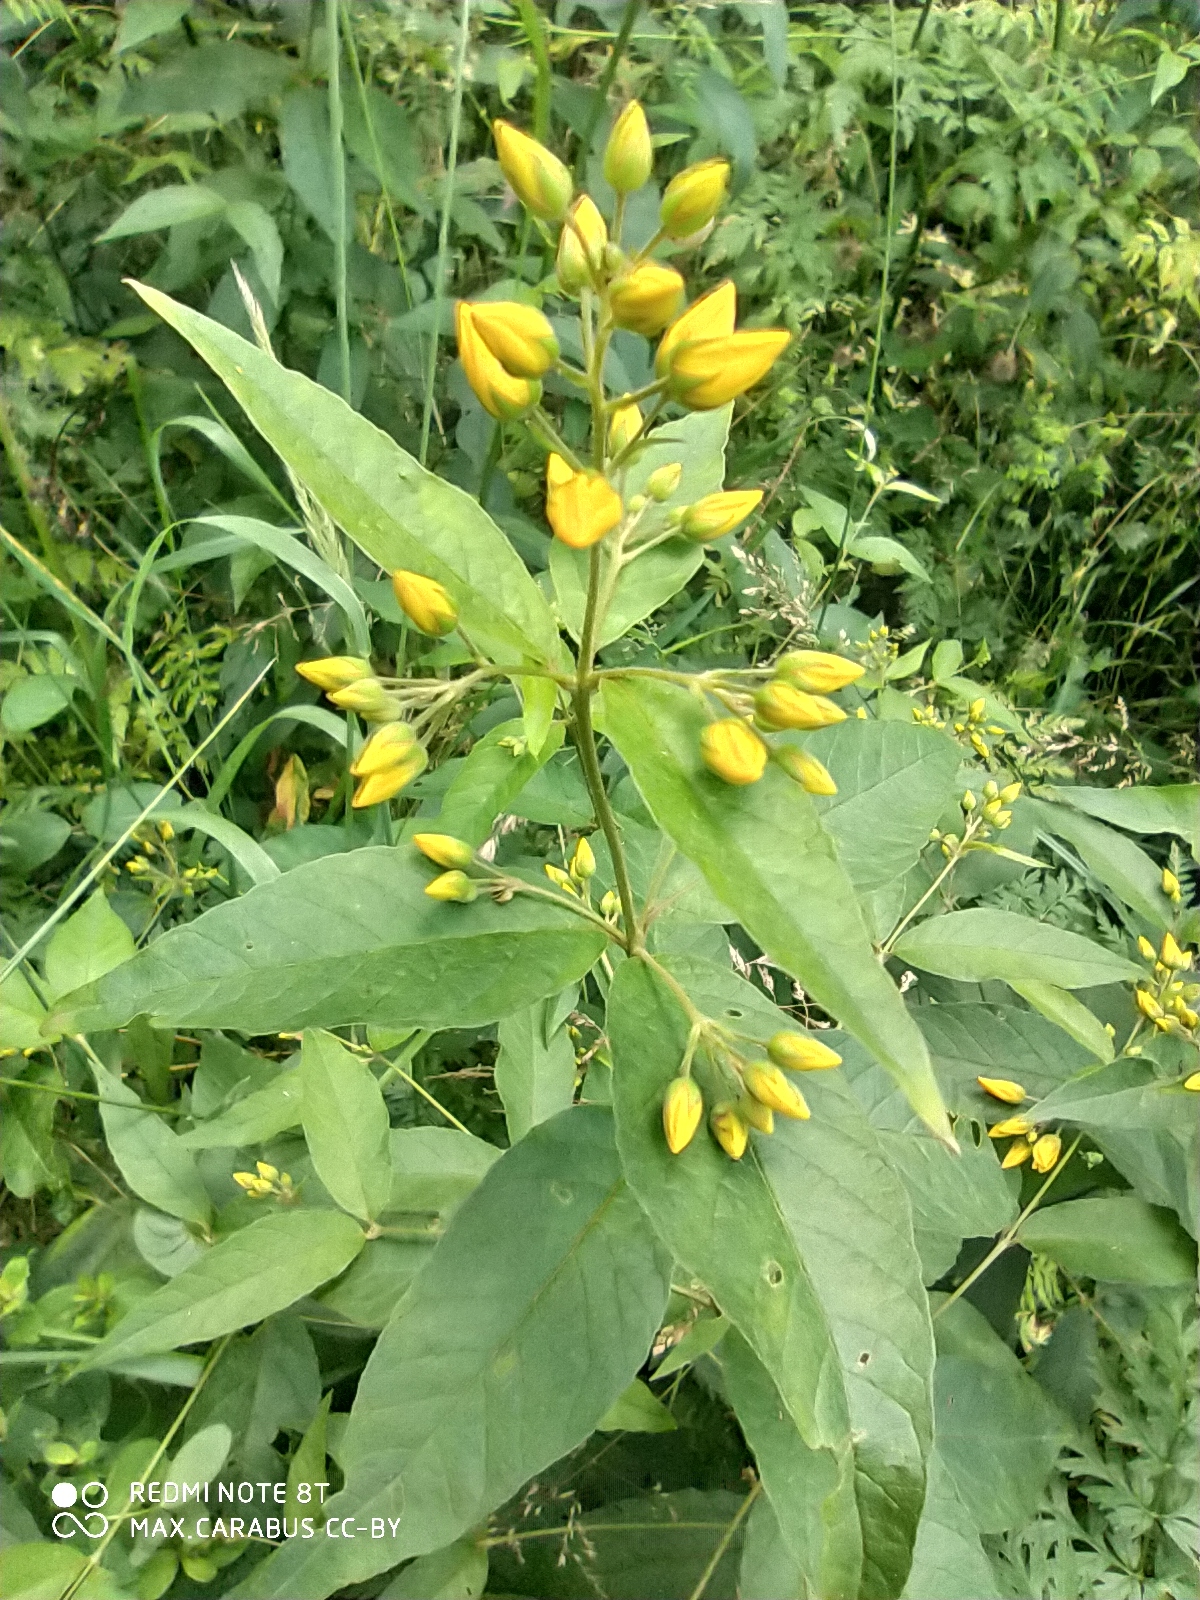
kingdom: Plantae
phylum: Tracheophyta
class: Magnoliopsida
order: Ericales
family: Primulaceae
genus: Lysimachia
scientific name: Lysimachia vulgaris
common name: Yellow loosestrife
